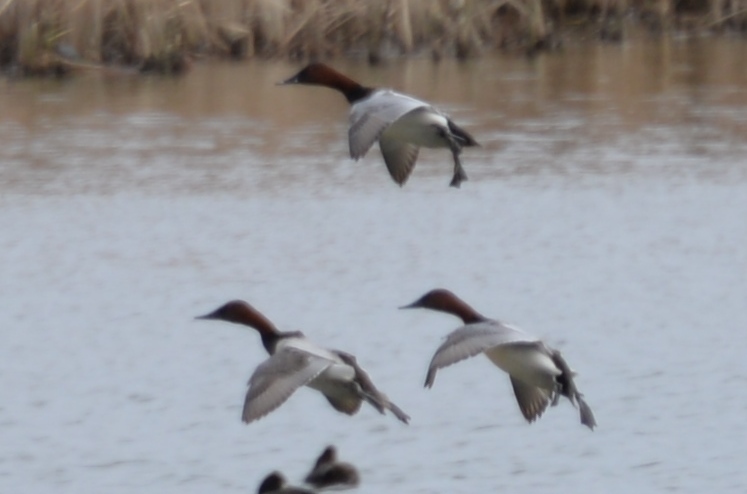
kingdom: Animalia
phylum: Chordata
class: Aves
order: Anseriformes
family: Anatidae
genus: Aythya
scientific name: Aythya valisineria
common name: Canvasback
